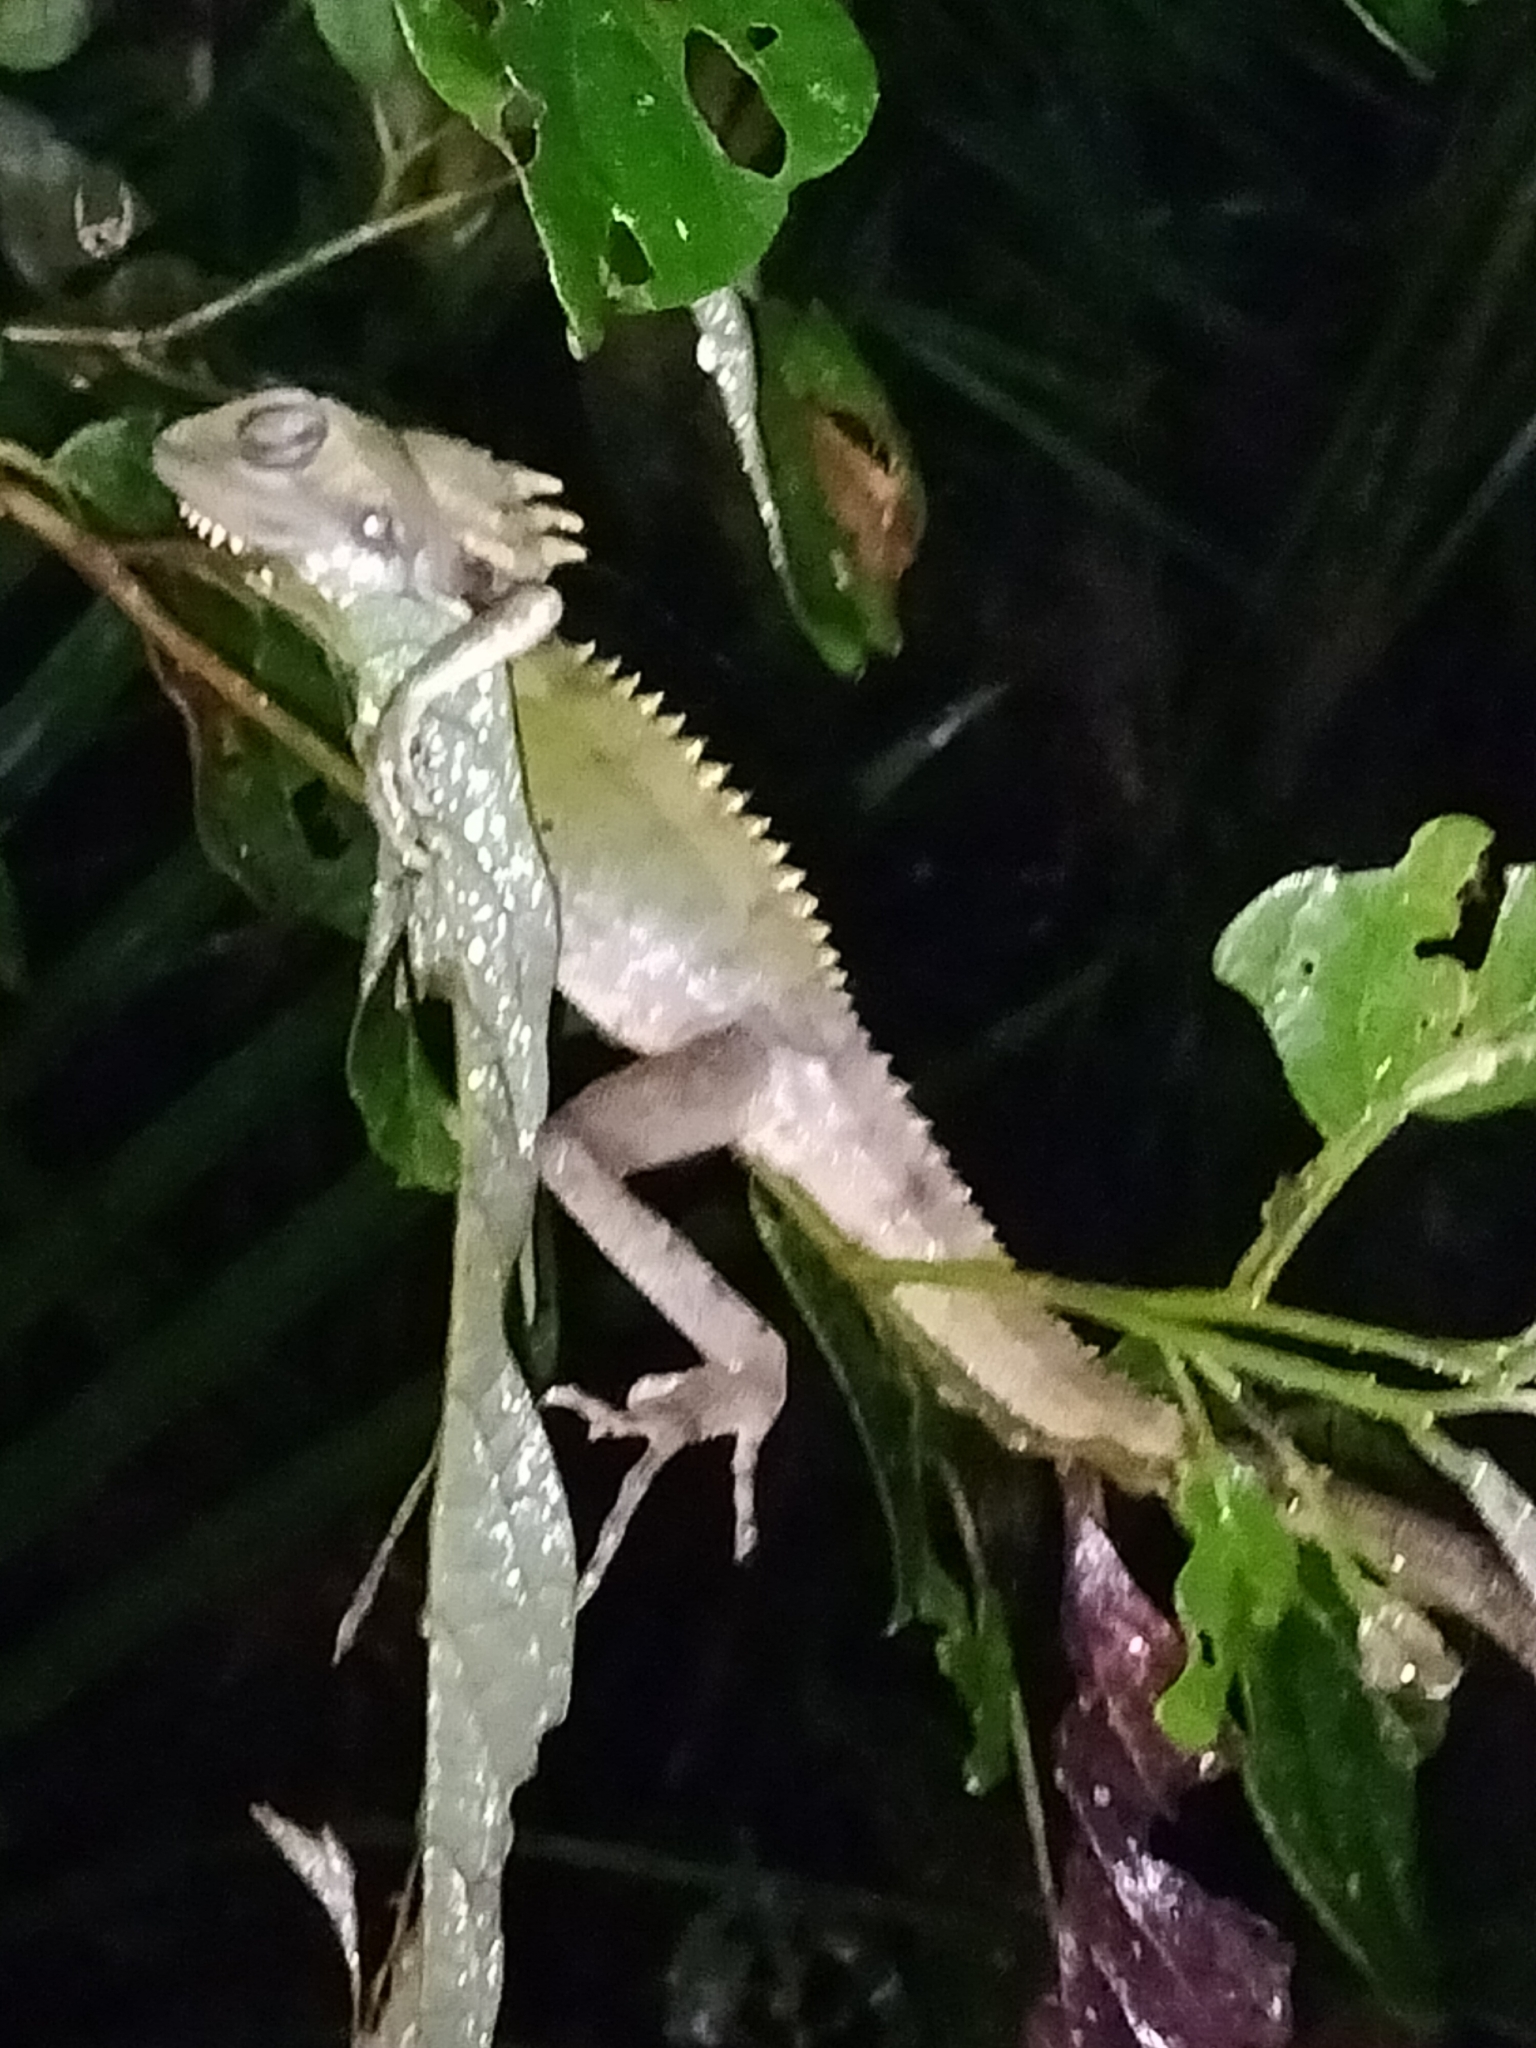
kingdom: Animalia
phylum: Chordata
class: Squamata
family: Agamidae
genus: Lophosaurus
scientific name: Lophosaurus boydii
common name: Boyd's forest dragon
